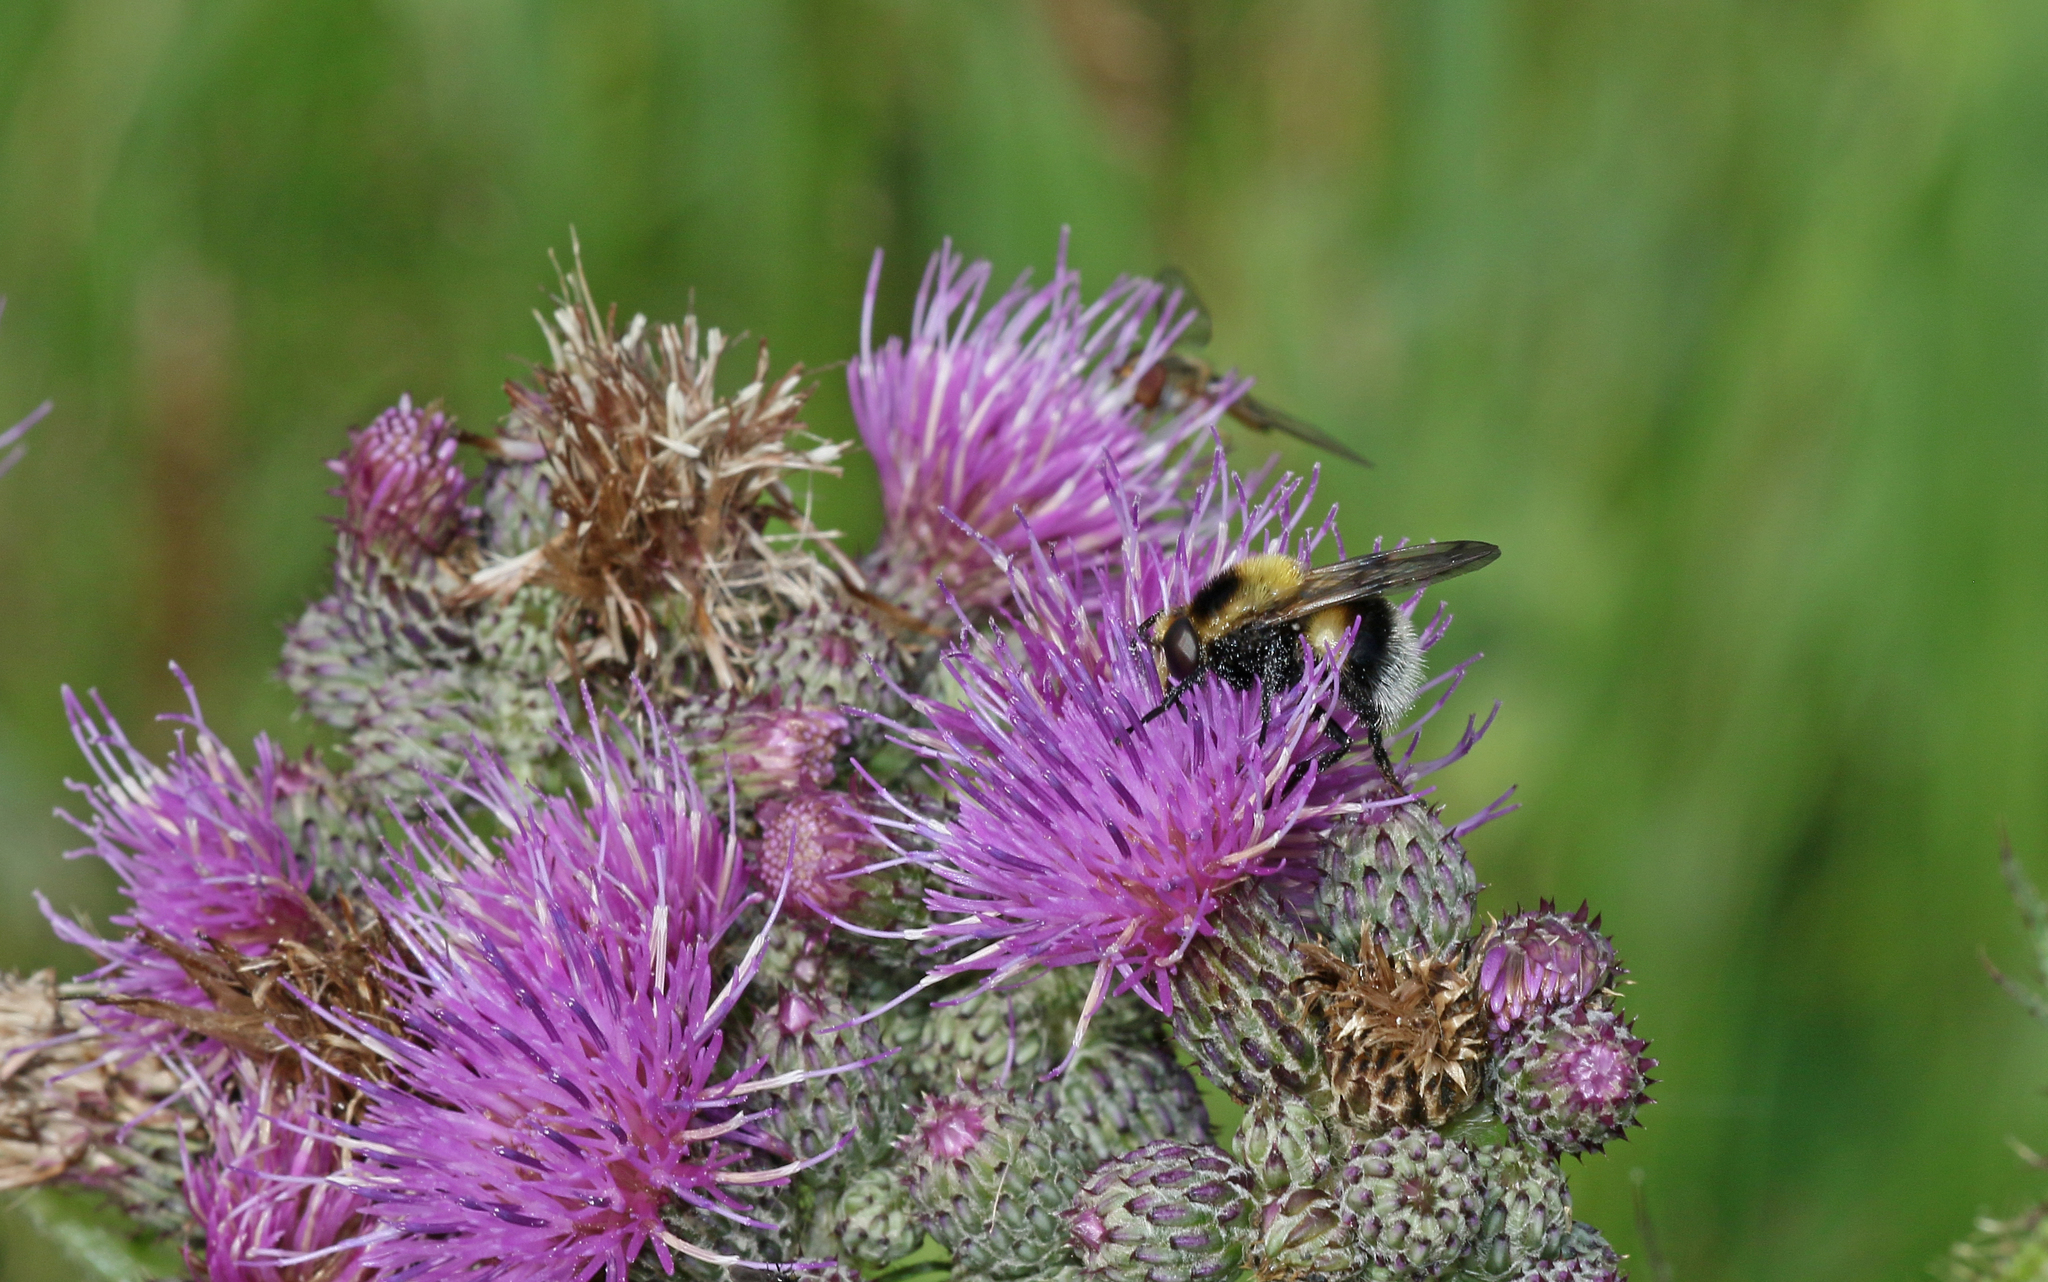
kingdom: Animalia
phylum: Arthropoda
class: Insecta
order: Diptera
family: Syrphidae
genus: Volucella
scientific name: Volucella bombylans
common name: Bumble bee hover fly
